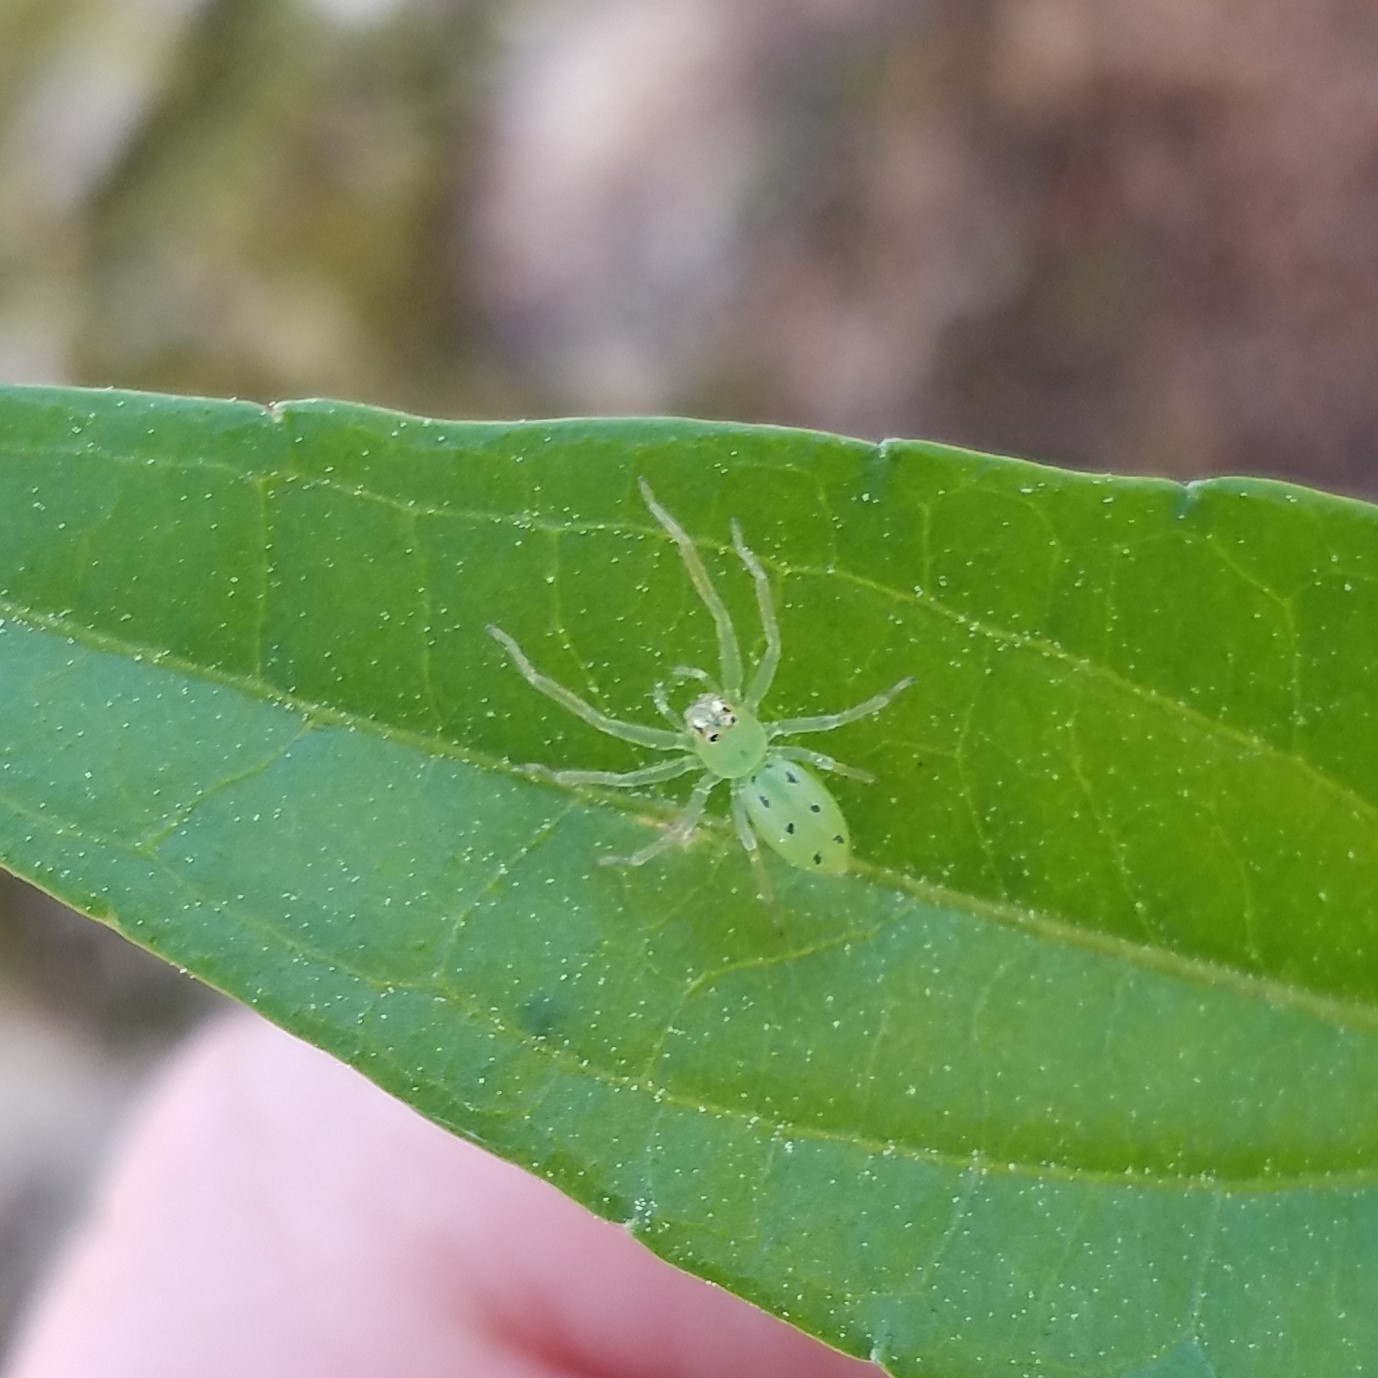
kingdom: Animalia
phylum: Arthropoda
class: Arachnida
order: Araneae
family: Salticidae
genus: Lyssomanes
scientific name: Lyssomanes viridis
